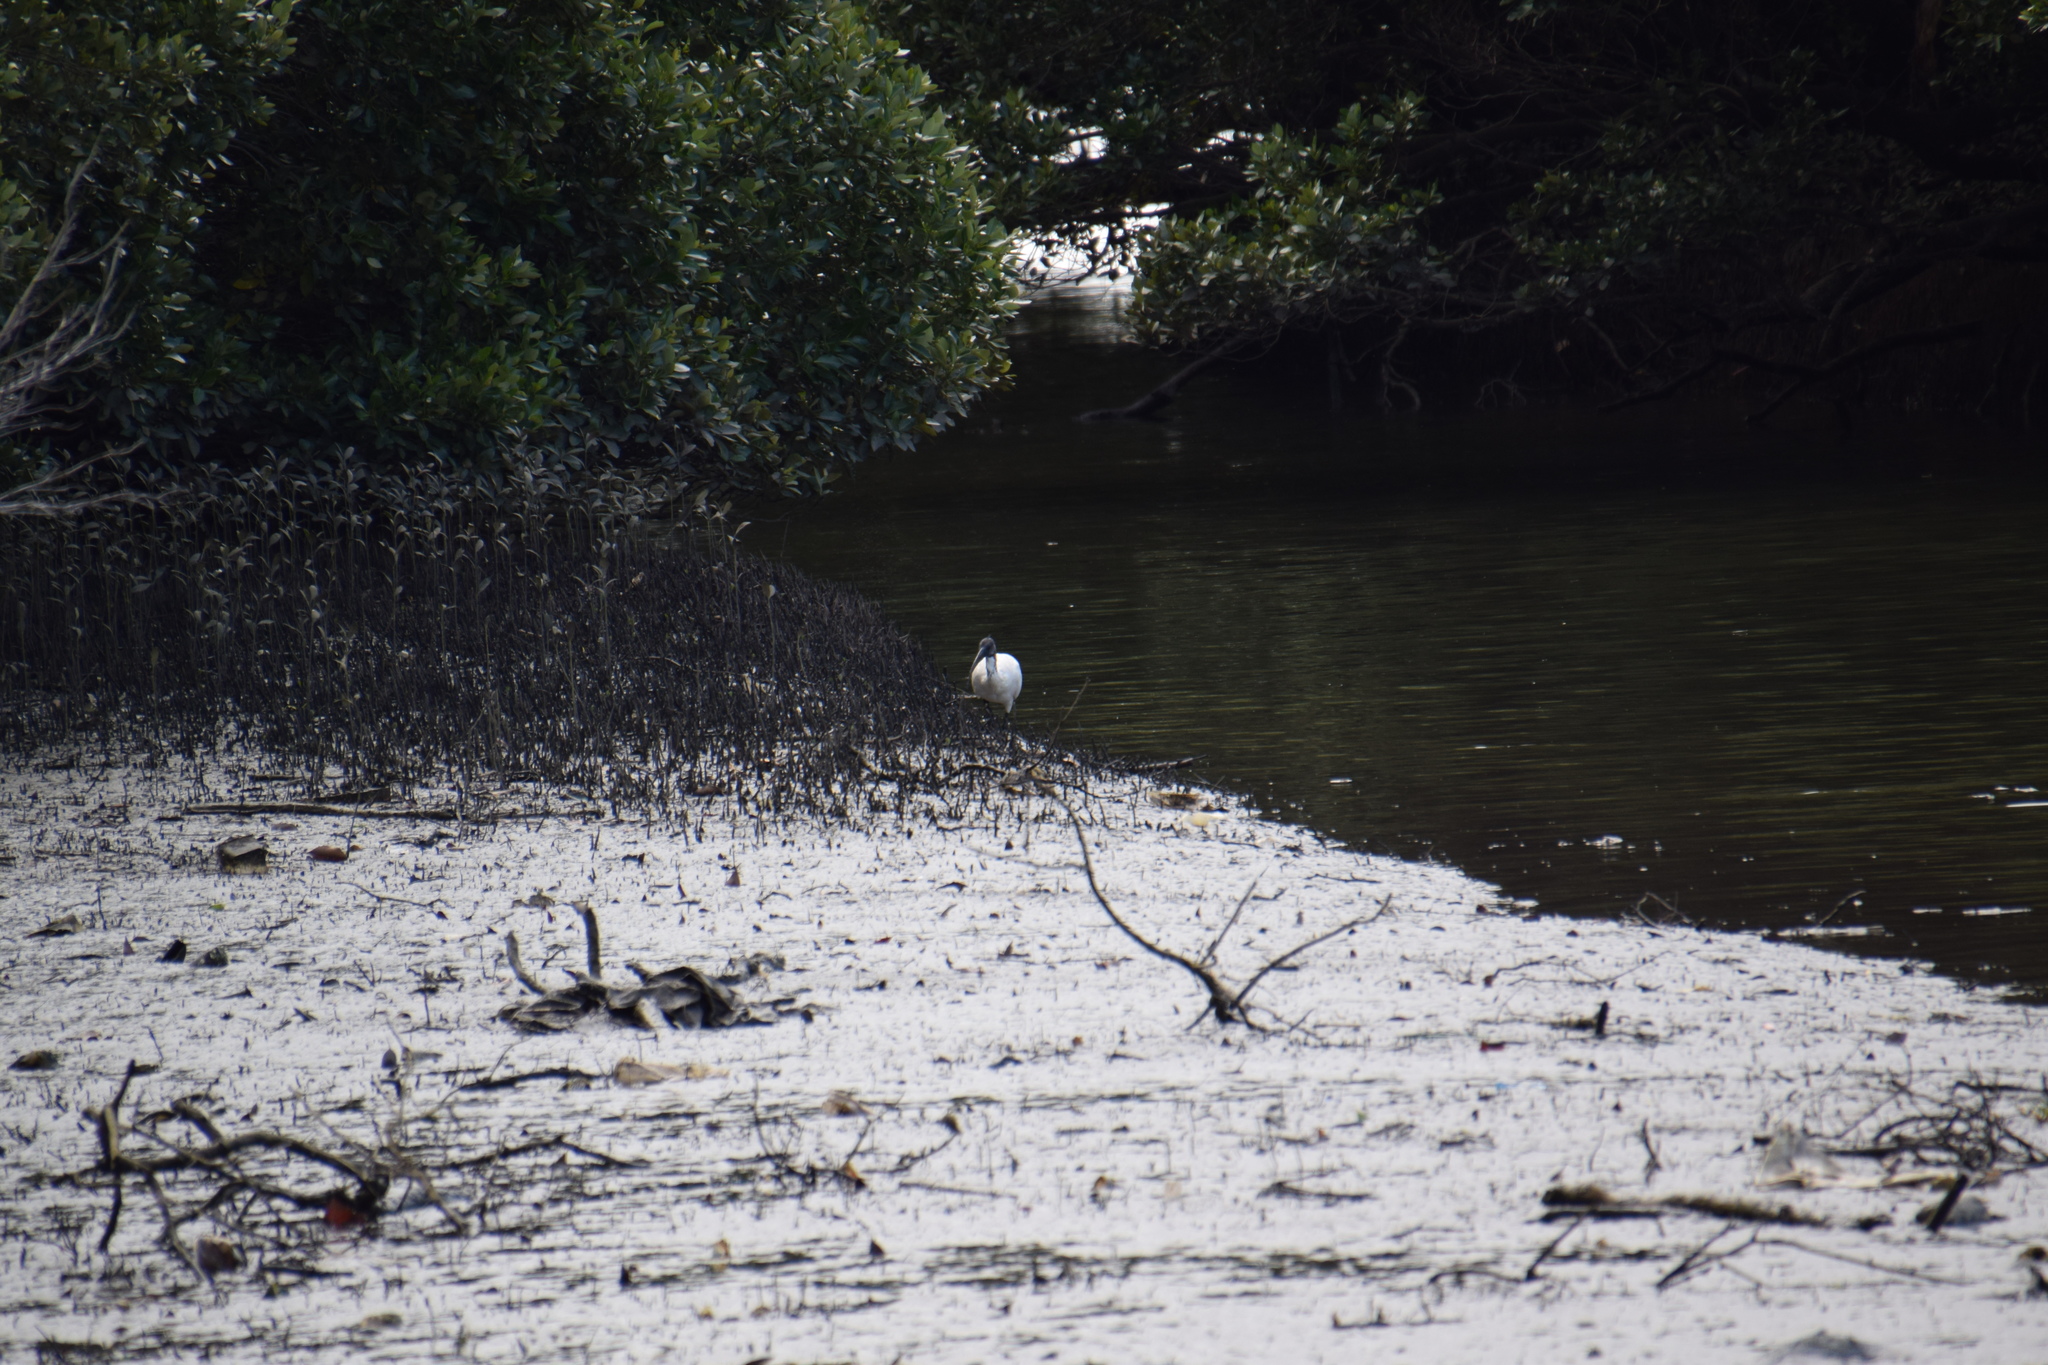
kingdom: Animalia
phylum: Chordata
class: Aves
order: Pelecaniformes
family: Threskiornithidae
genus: Threskiornis
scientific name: Threskiornis molucca
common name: Australian white ibis
